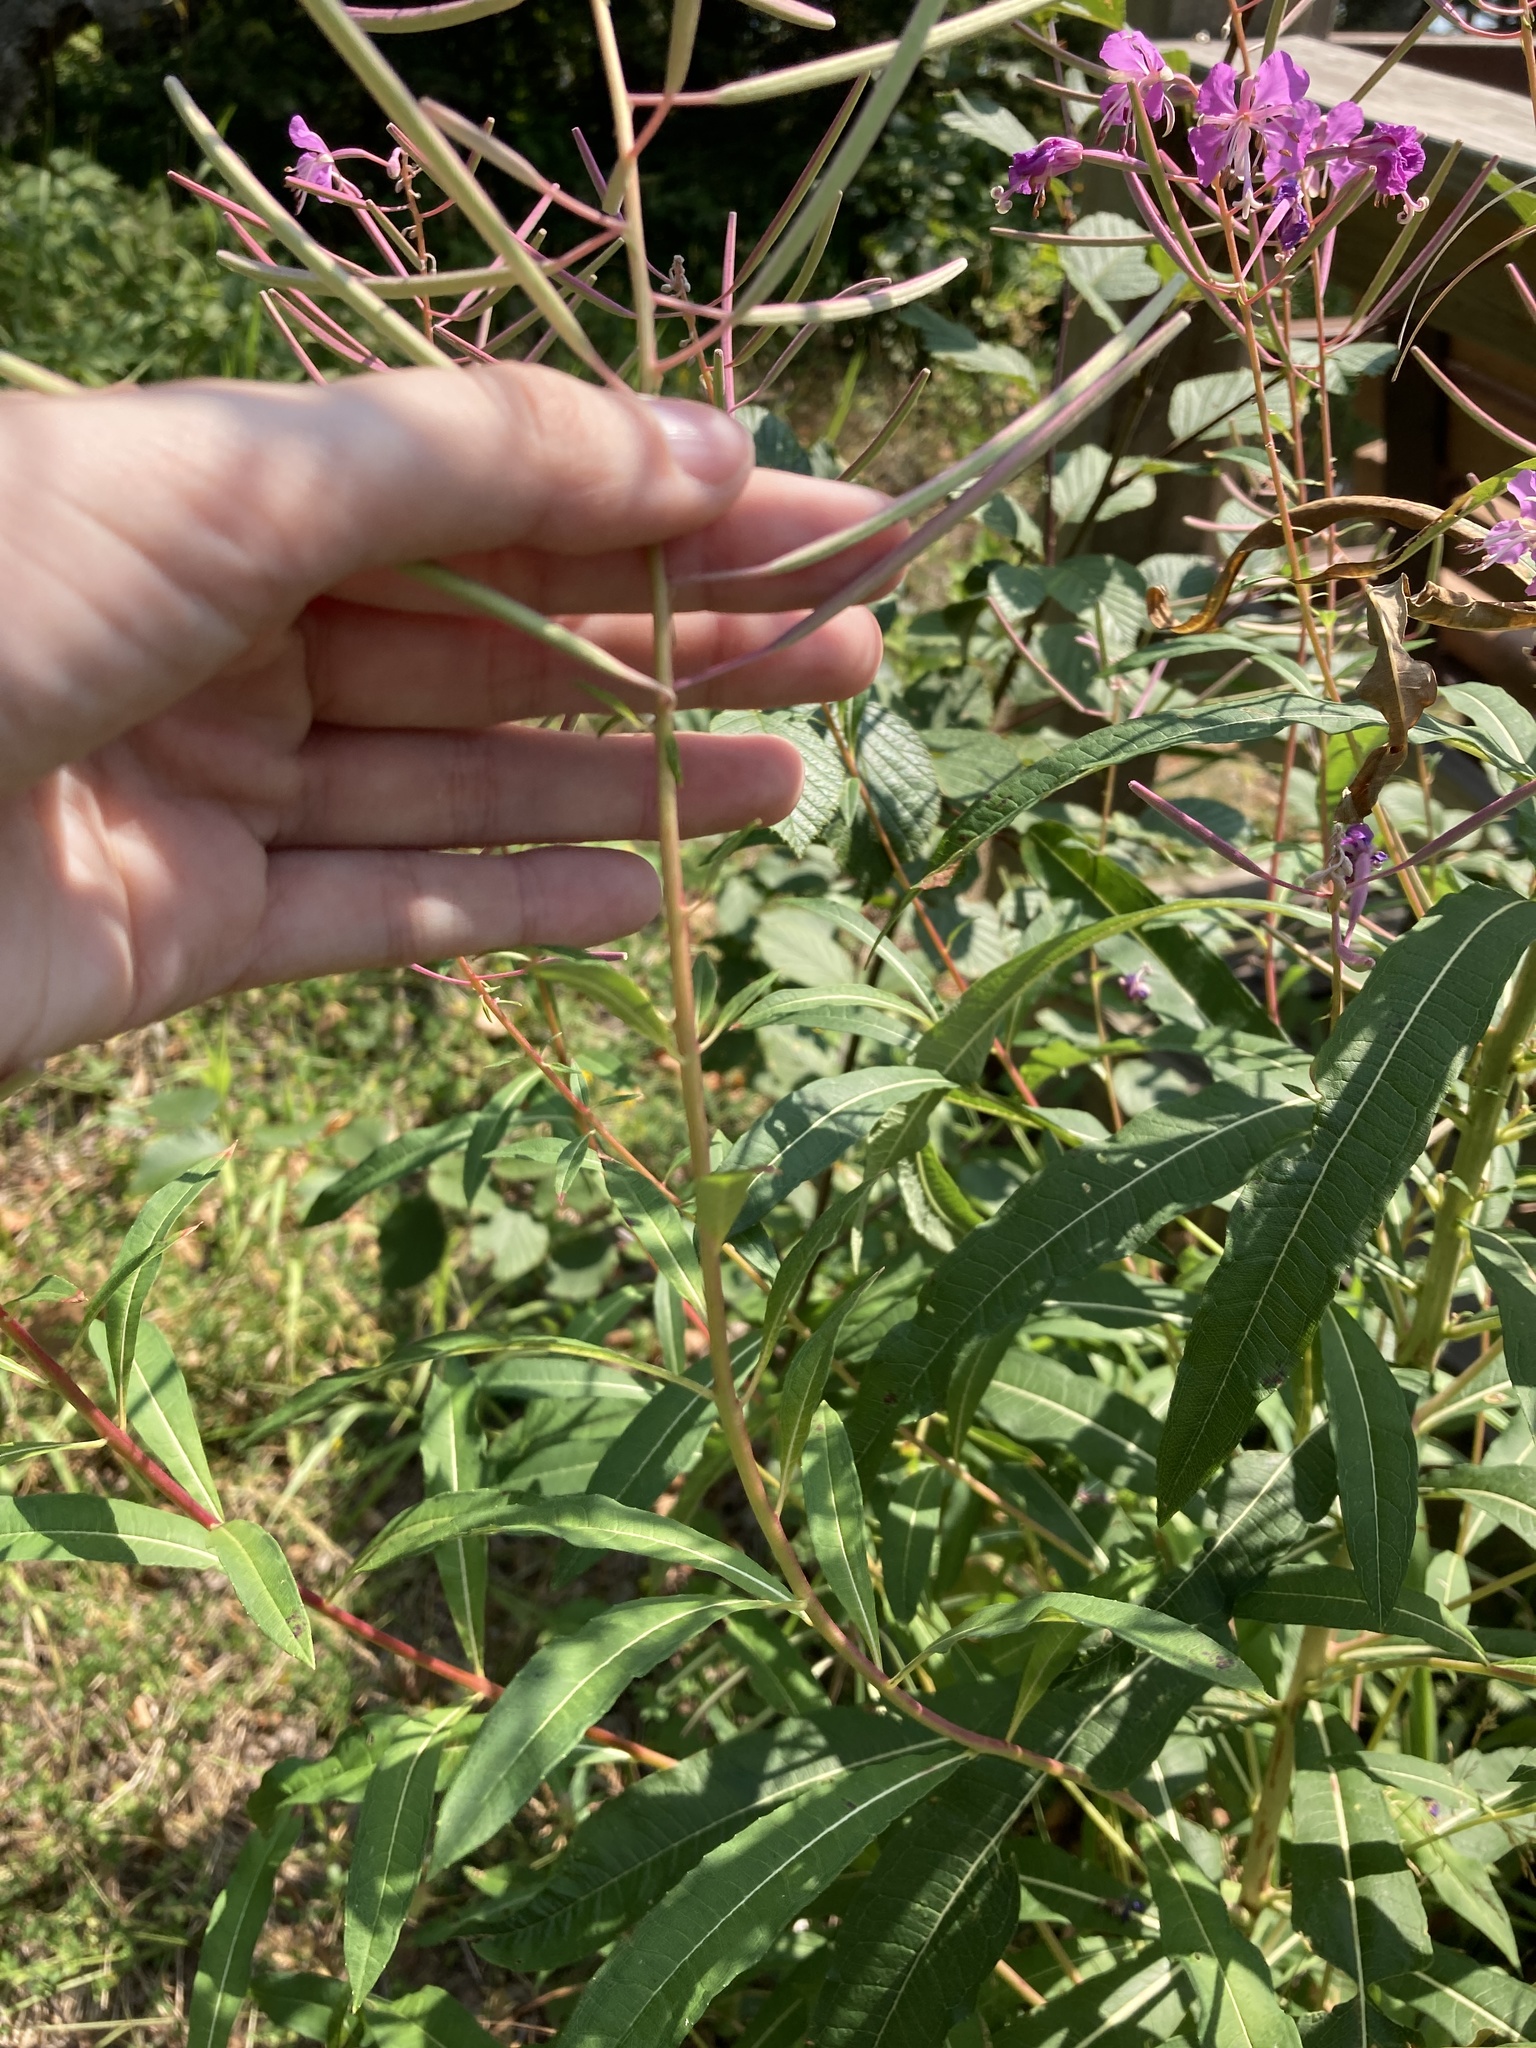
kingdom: Plantae
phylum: Tracheophyta
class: Magnoliopsida
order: Myrtales
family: Onagraceae
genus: Chamaenerion
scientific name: Chamaenerion angustifolium
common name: Fireweed
